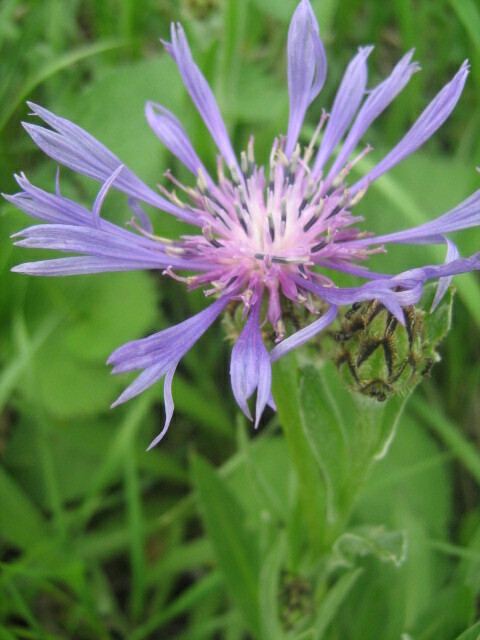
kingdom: Plantae
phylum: Tracheophyta
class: Magnoliopsida
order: Asterales
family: Asteraceae
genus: Centaurea
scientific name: Centaurea tanaitica
